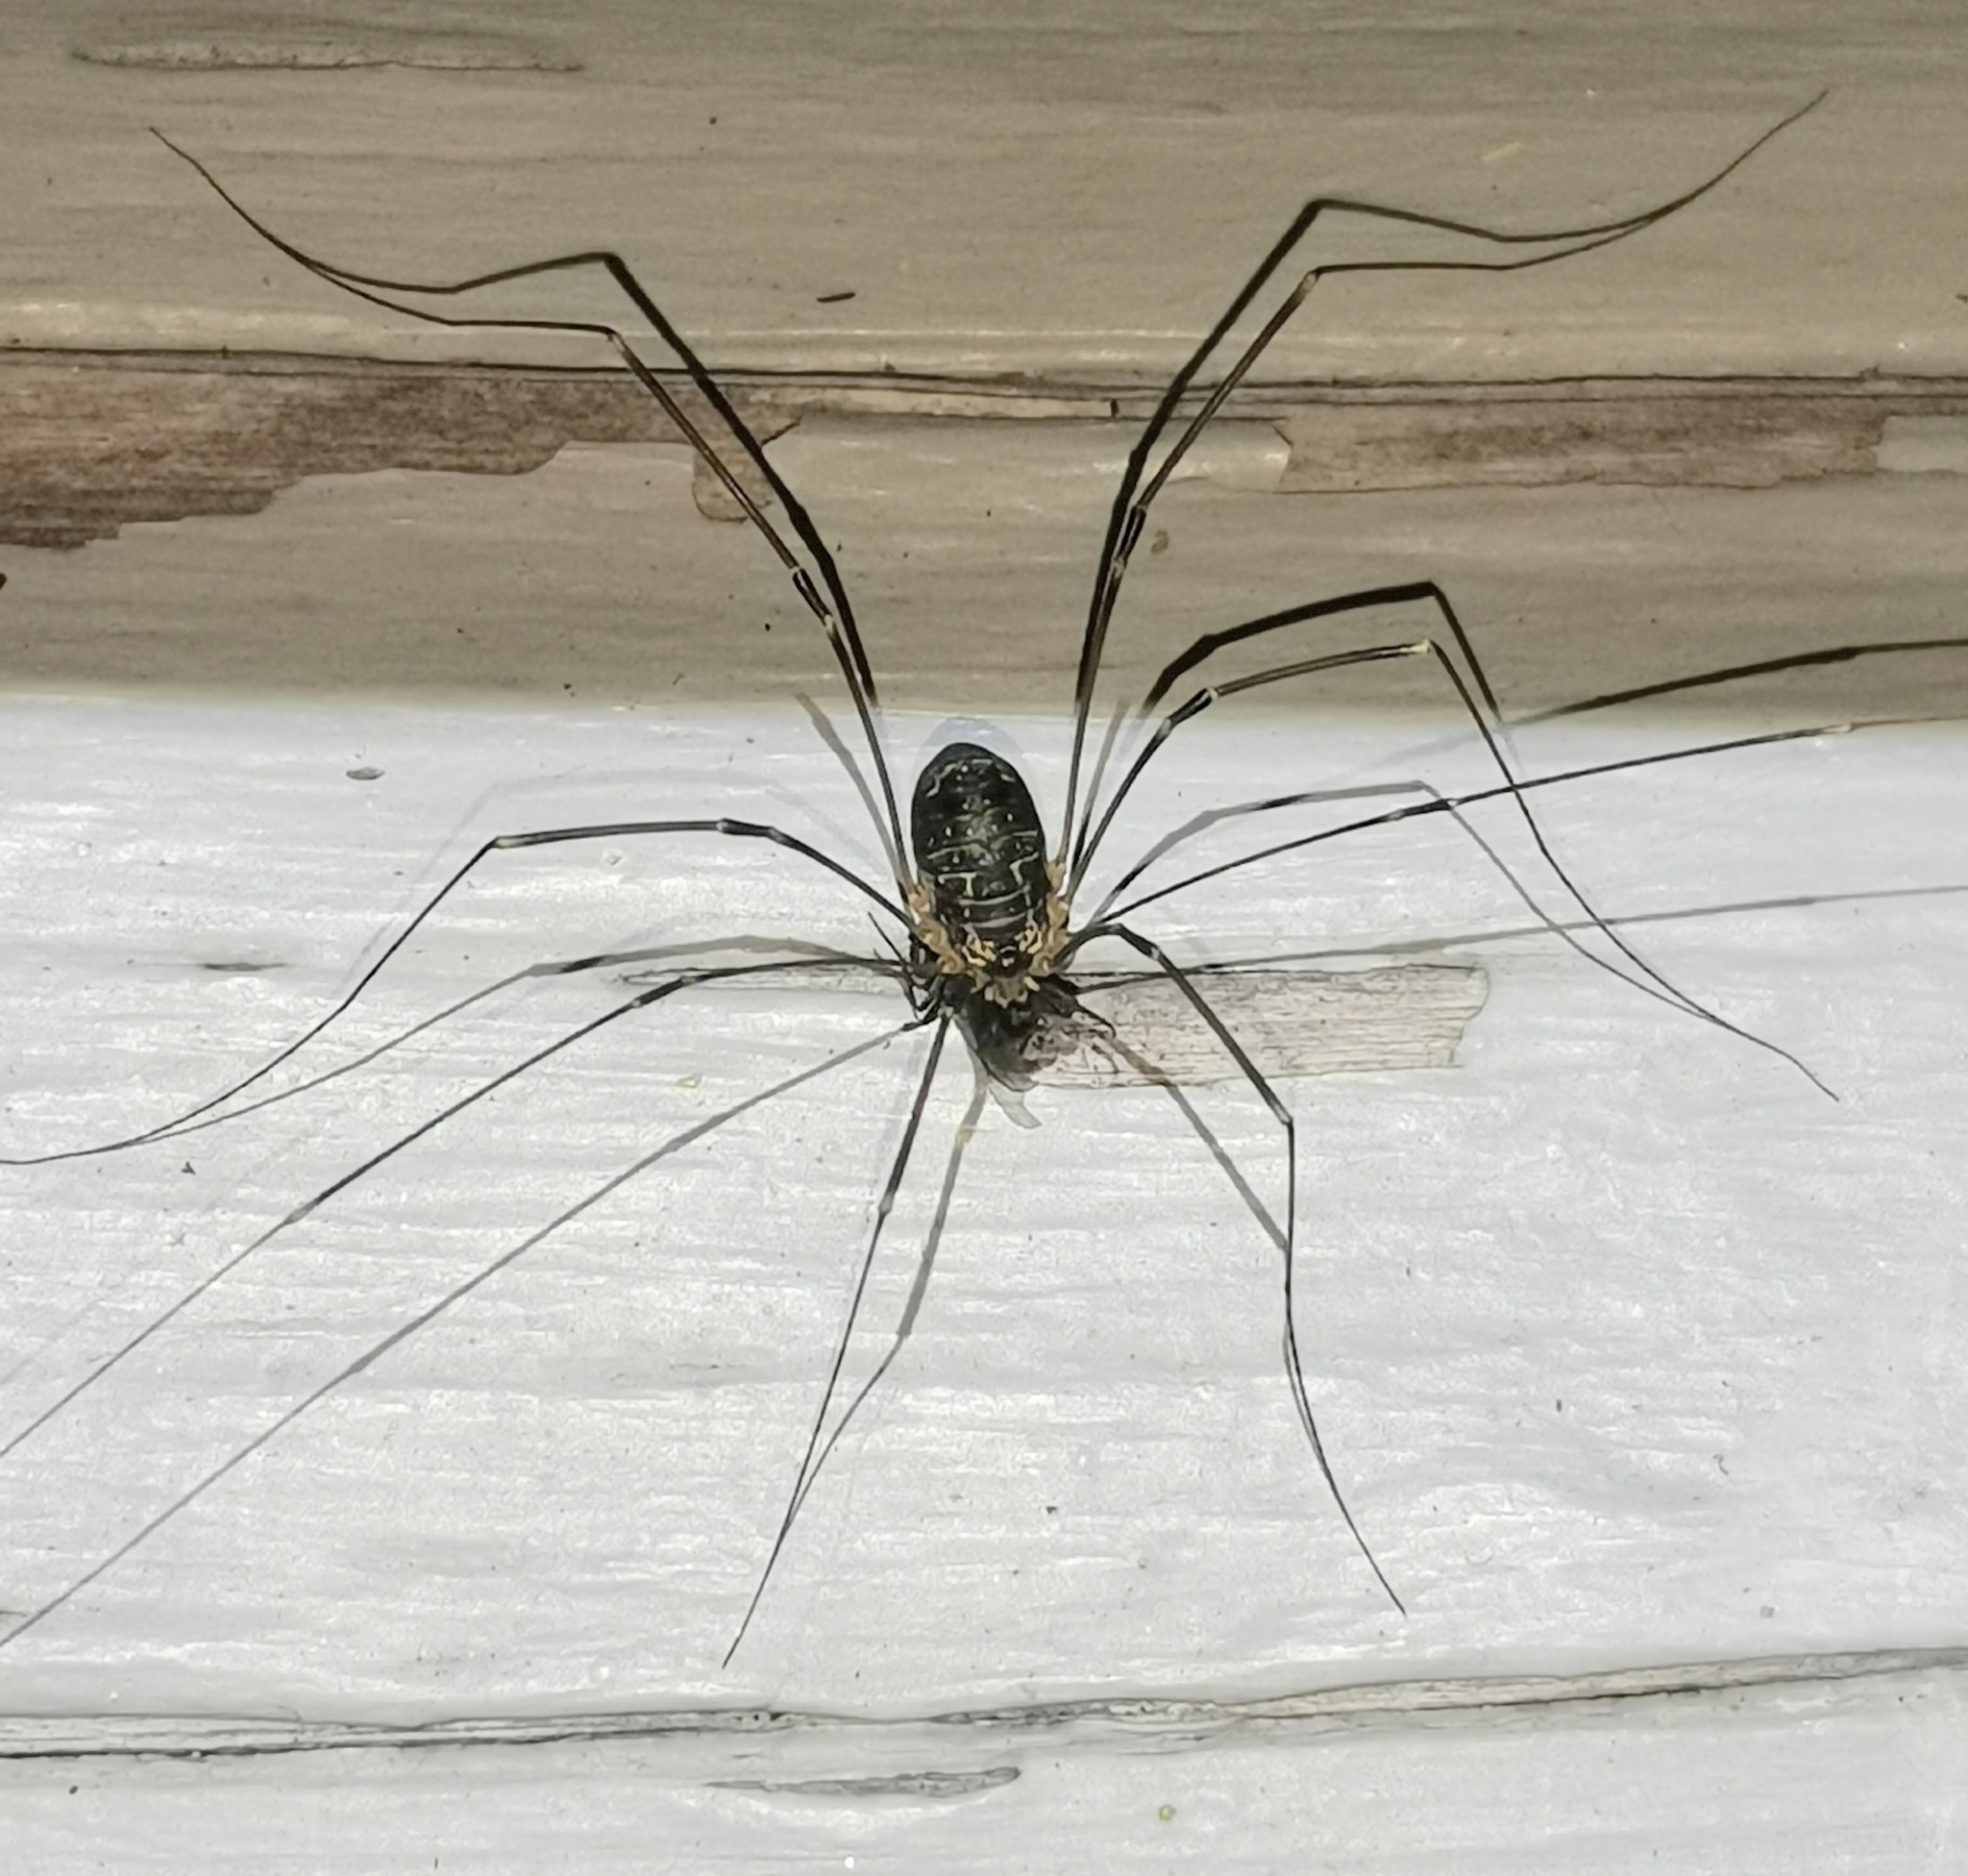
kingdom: Animalia
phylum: Arthropoda
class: Arachnida
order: Opiliones
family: Sclerosomatidae
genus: Leiobunum
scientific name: Leiobunum gracile
